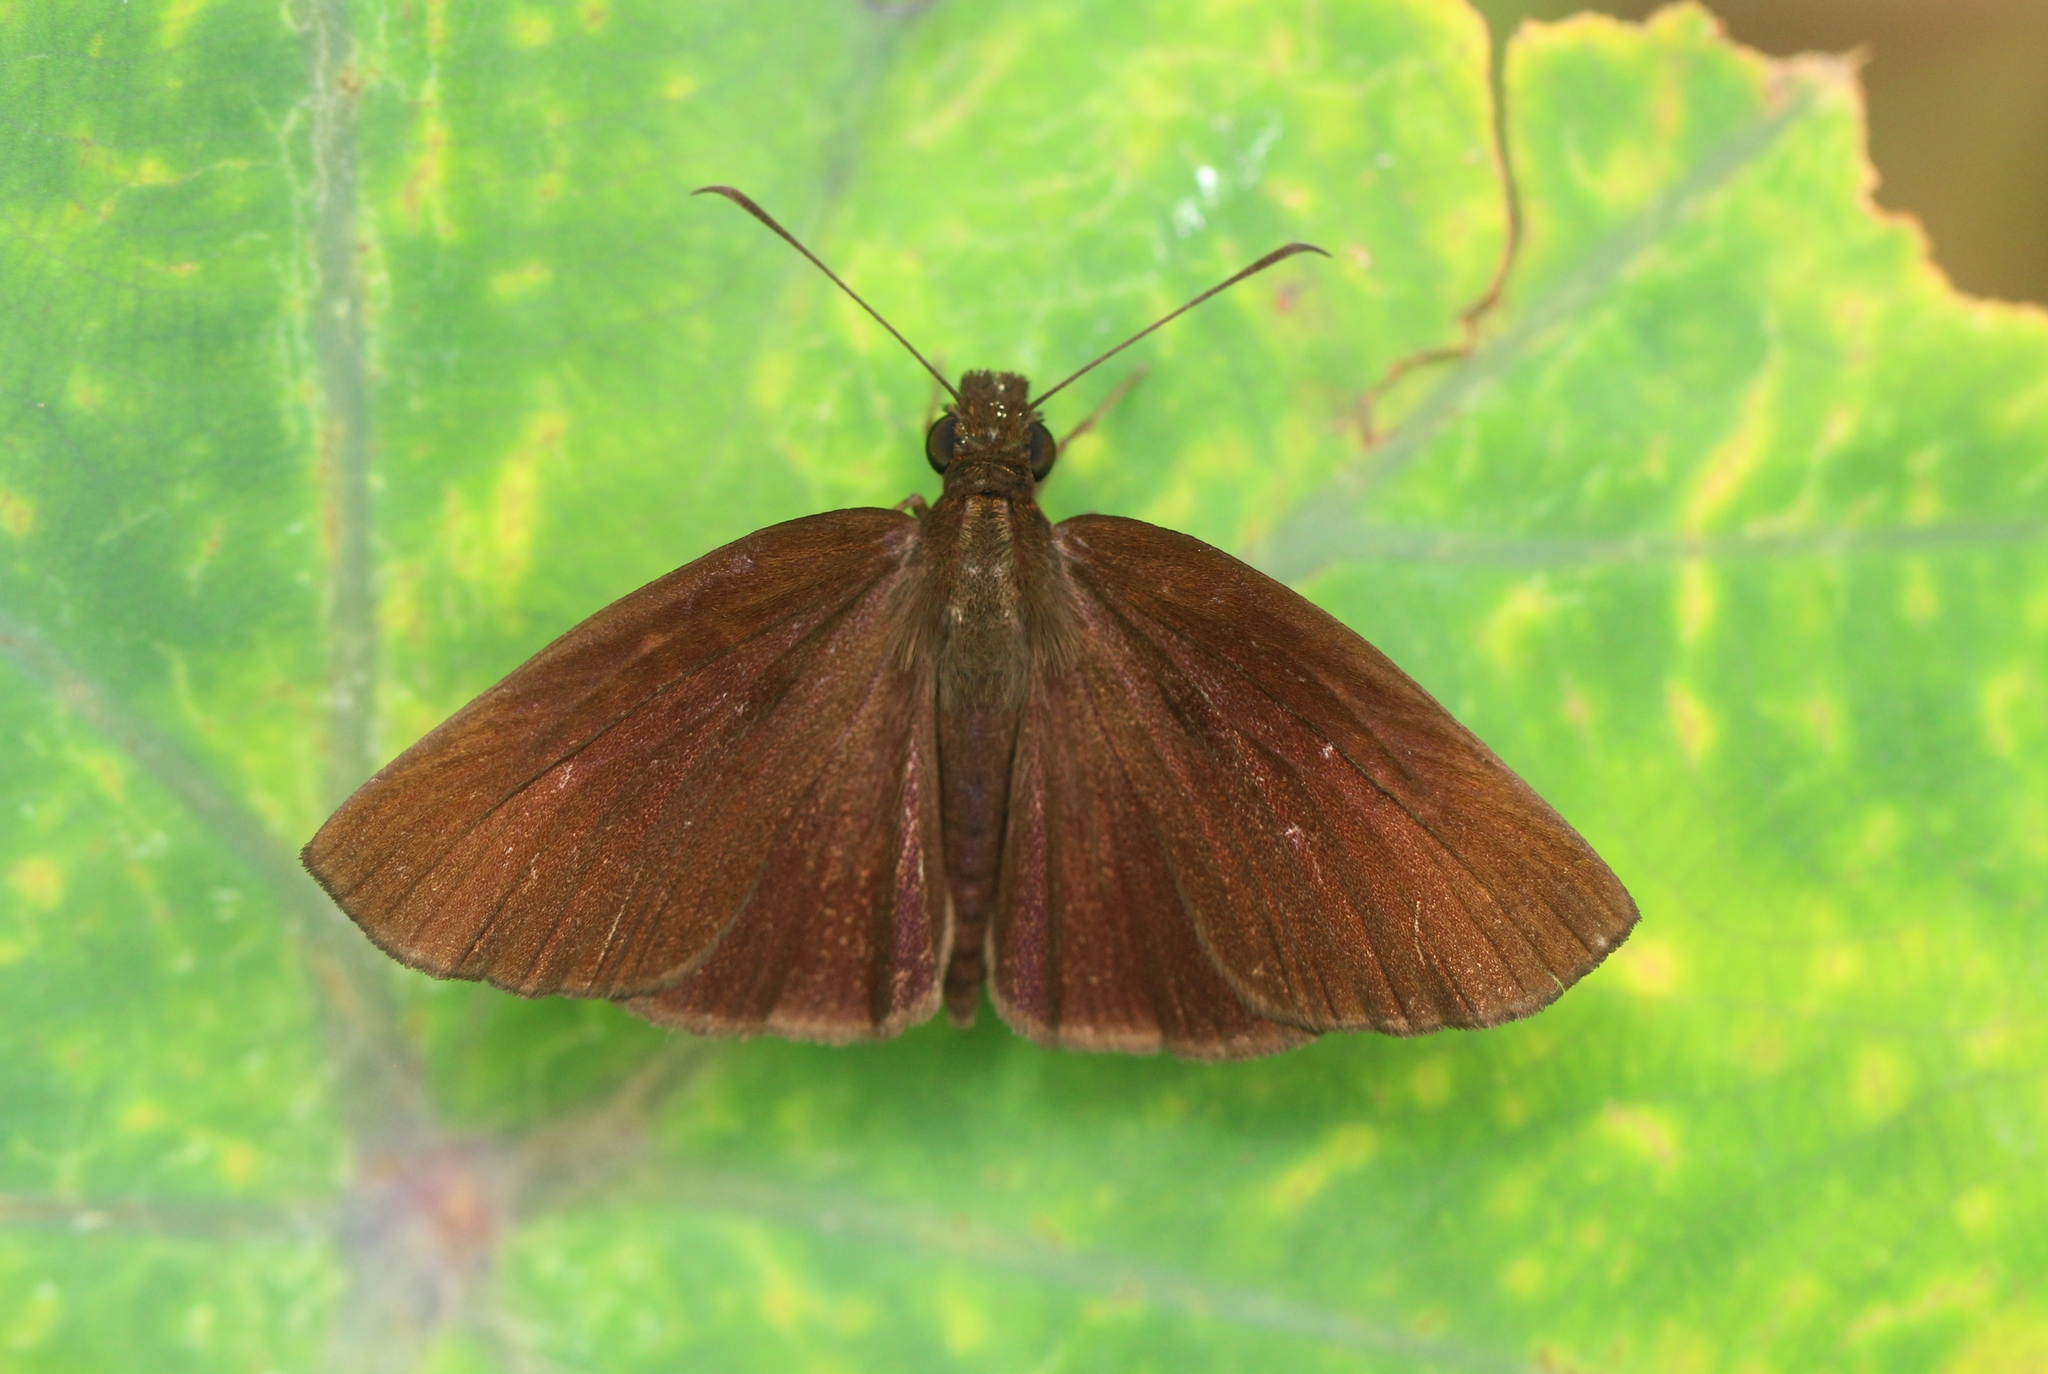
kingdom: Animalia
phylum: Arthropoda
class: Insecta
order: Lepidoptera
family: Hesperiidae
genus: Psolos
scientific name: Psolos fuligo
